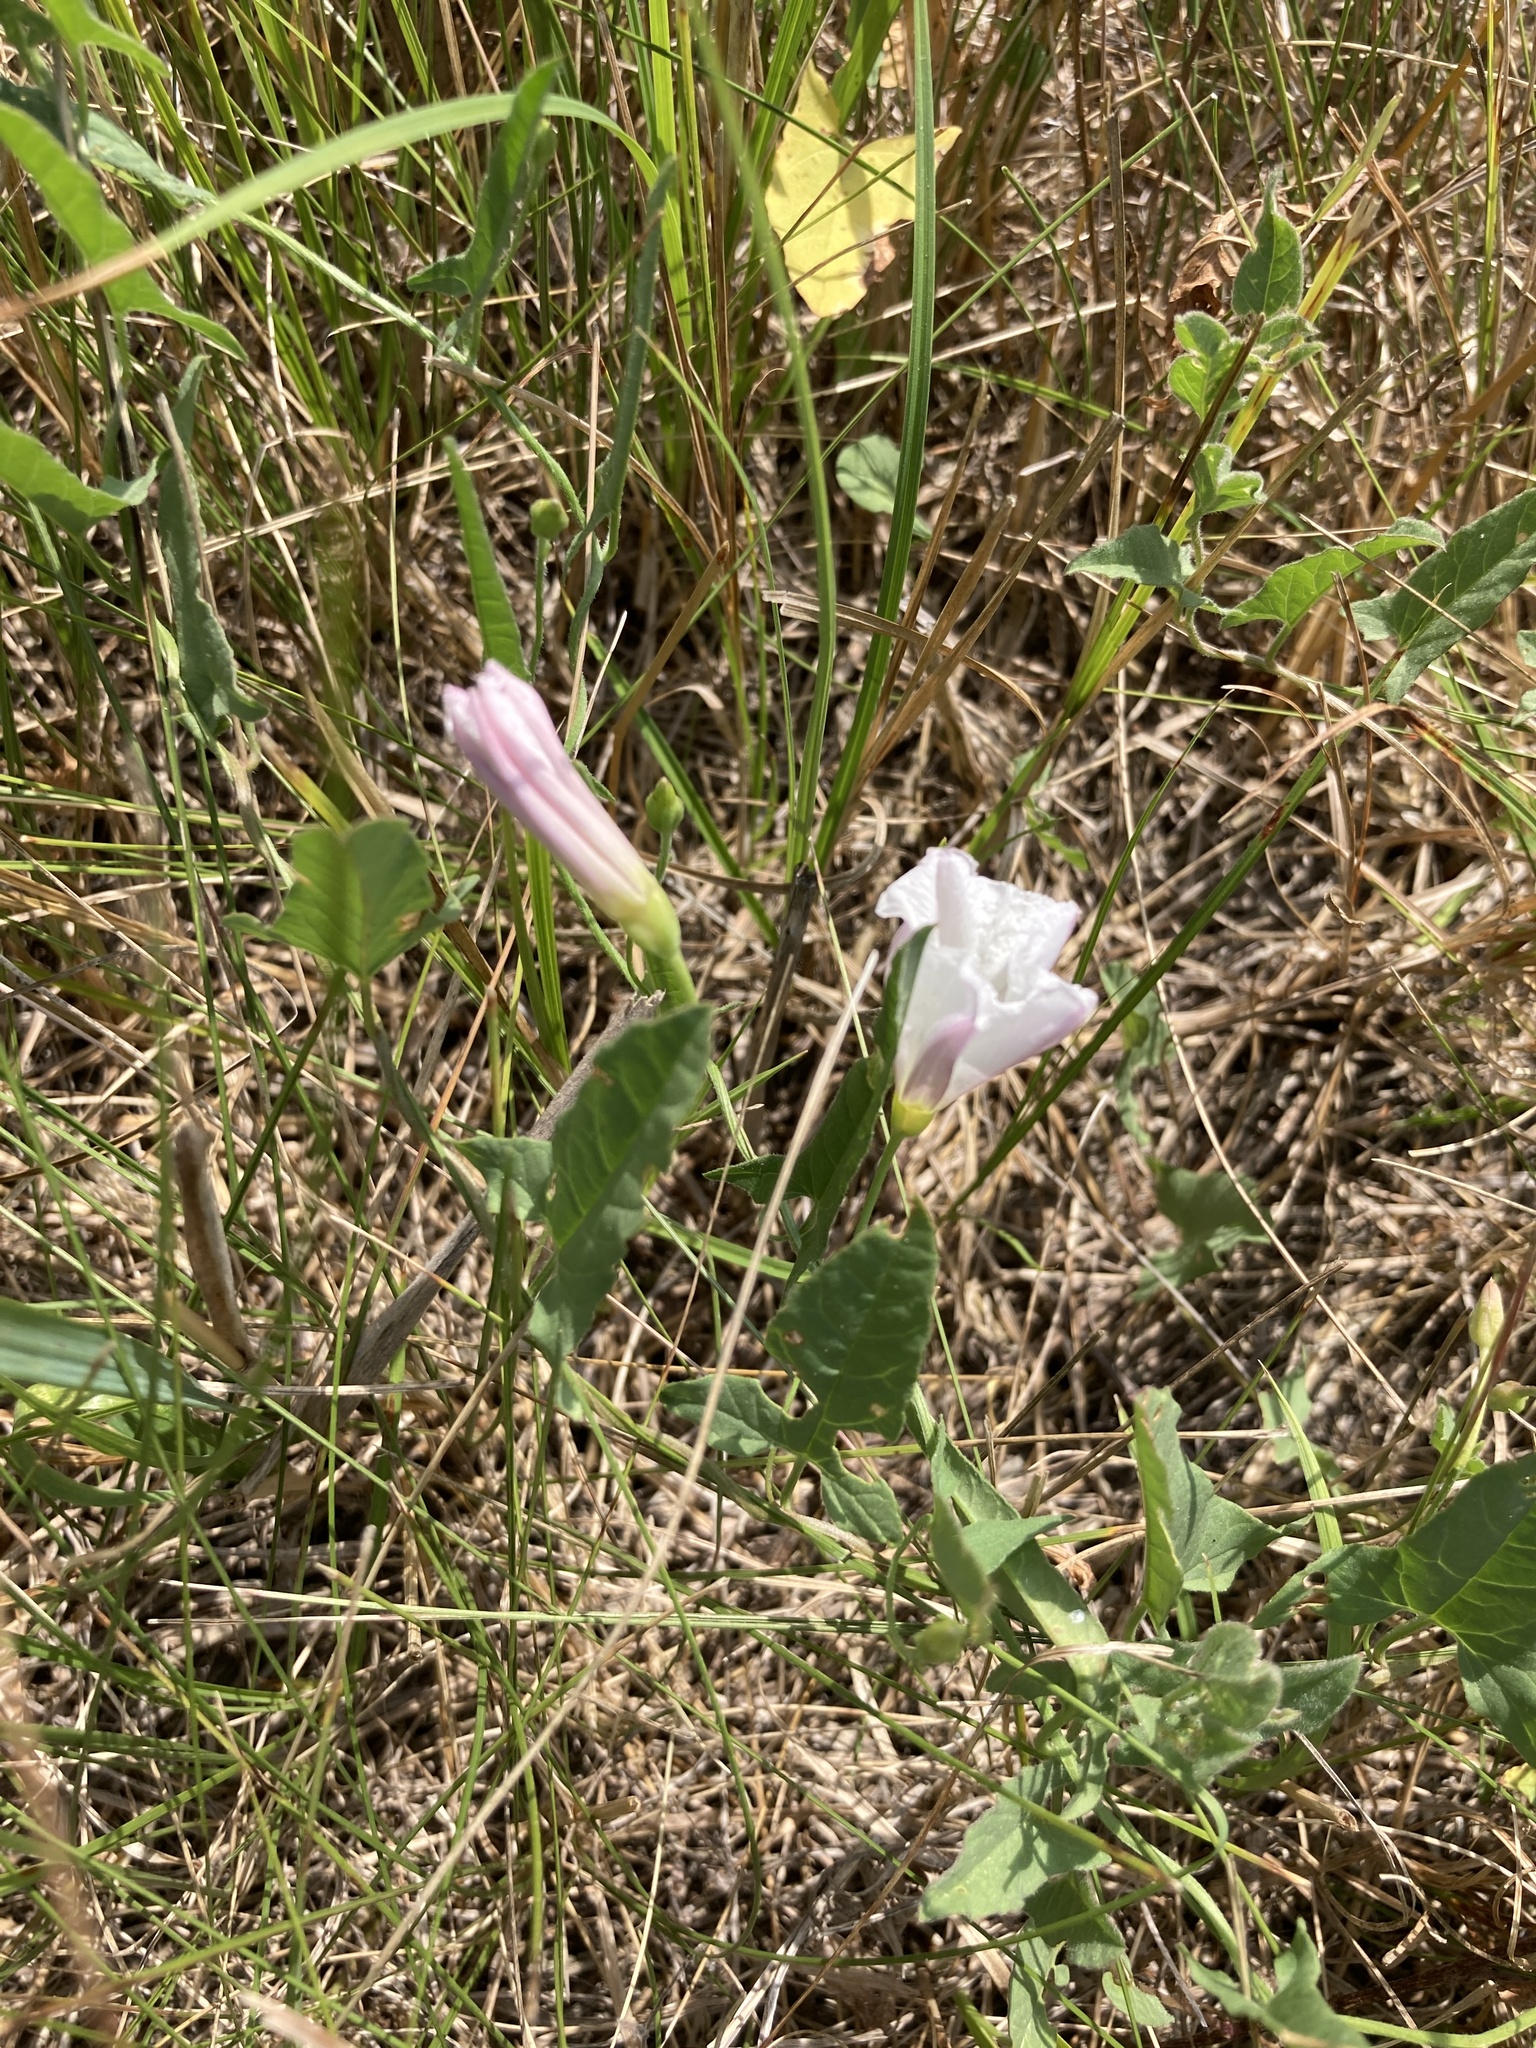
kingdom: Plantae
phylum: Tracheophyta
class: Magnoliopsida
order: Solanales
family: Convolvulaceae
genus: Convolvulus
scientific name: Convolvulus arvensis
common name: Field bindweed
